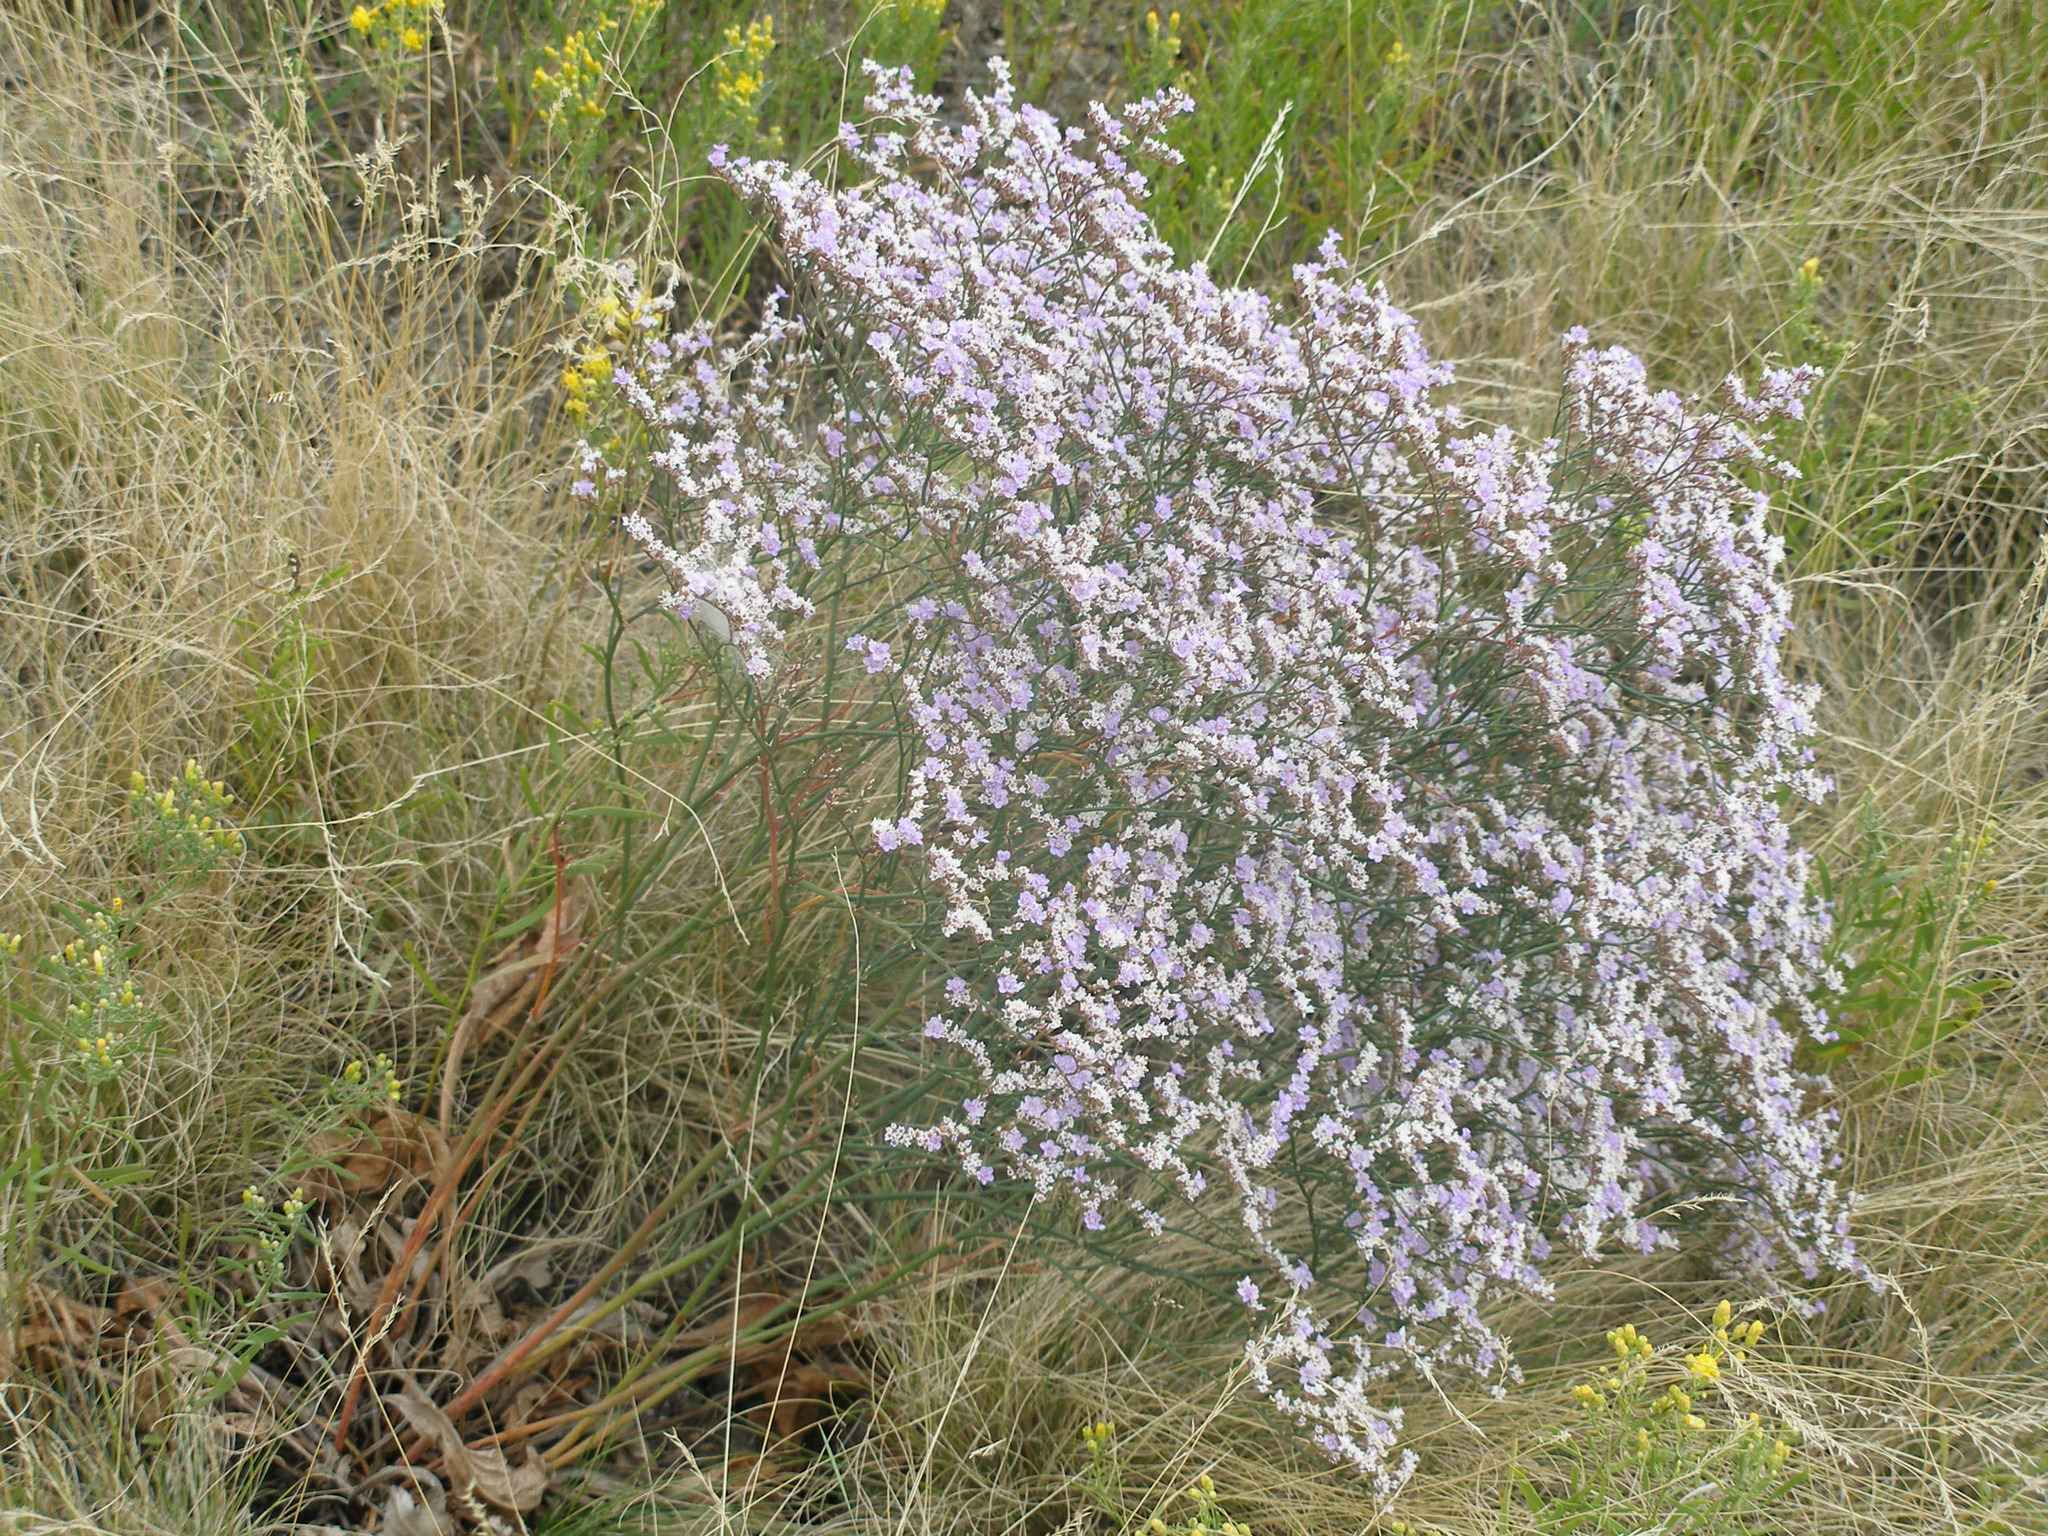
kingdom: Plantae
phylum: Tracheophyta
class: Magnoliopsida
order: Caryophyllales
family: Plumbaginaceae
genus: Limonium
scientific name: Limonium gmelini
